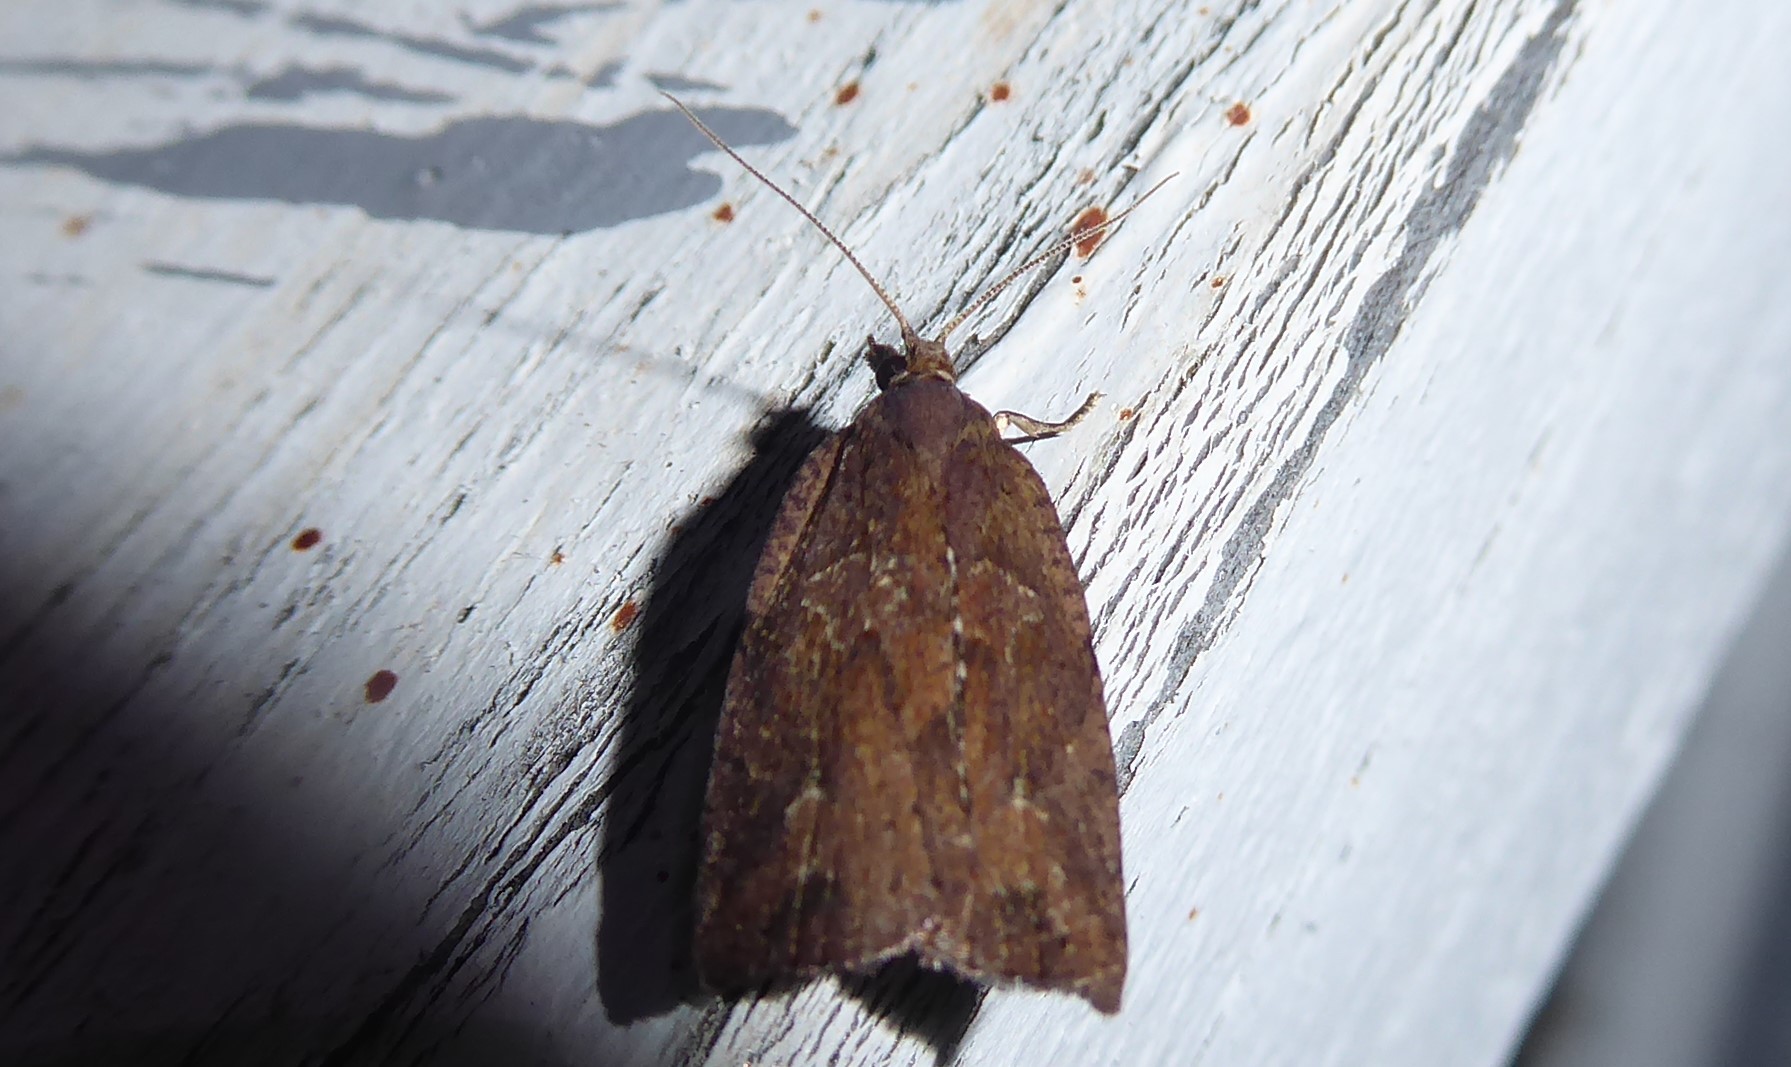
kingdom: Animalia
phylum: Arthropoda
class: Insecta
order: Lepidoptera
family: Tortricidae
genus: Planotortrix
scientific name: Planotortrix notophaea
